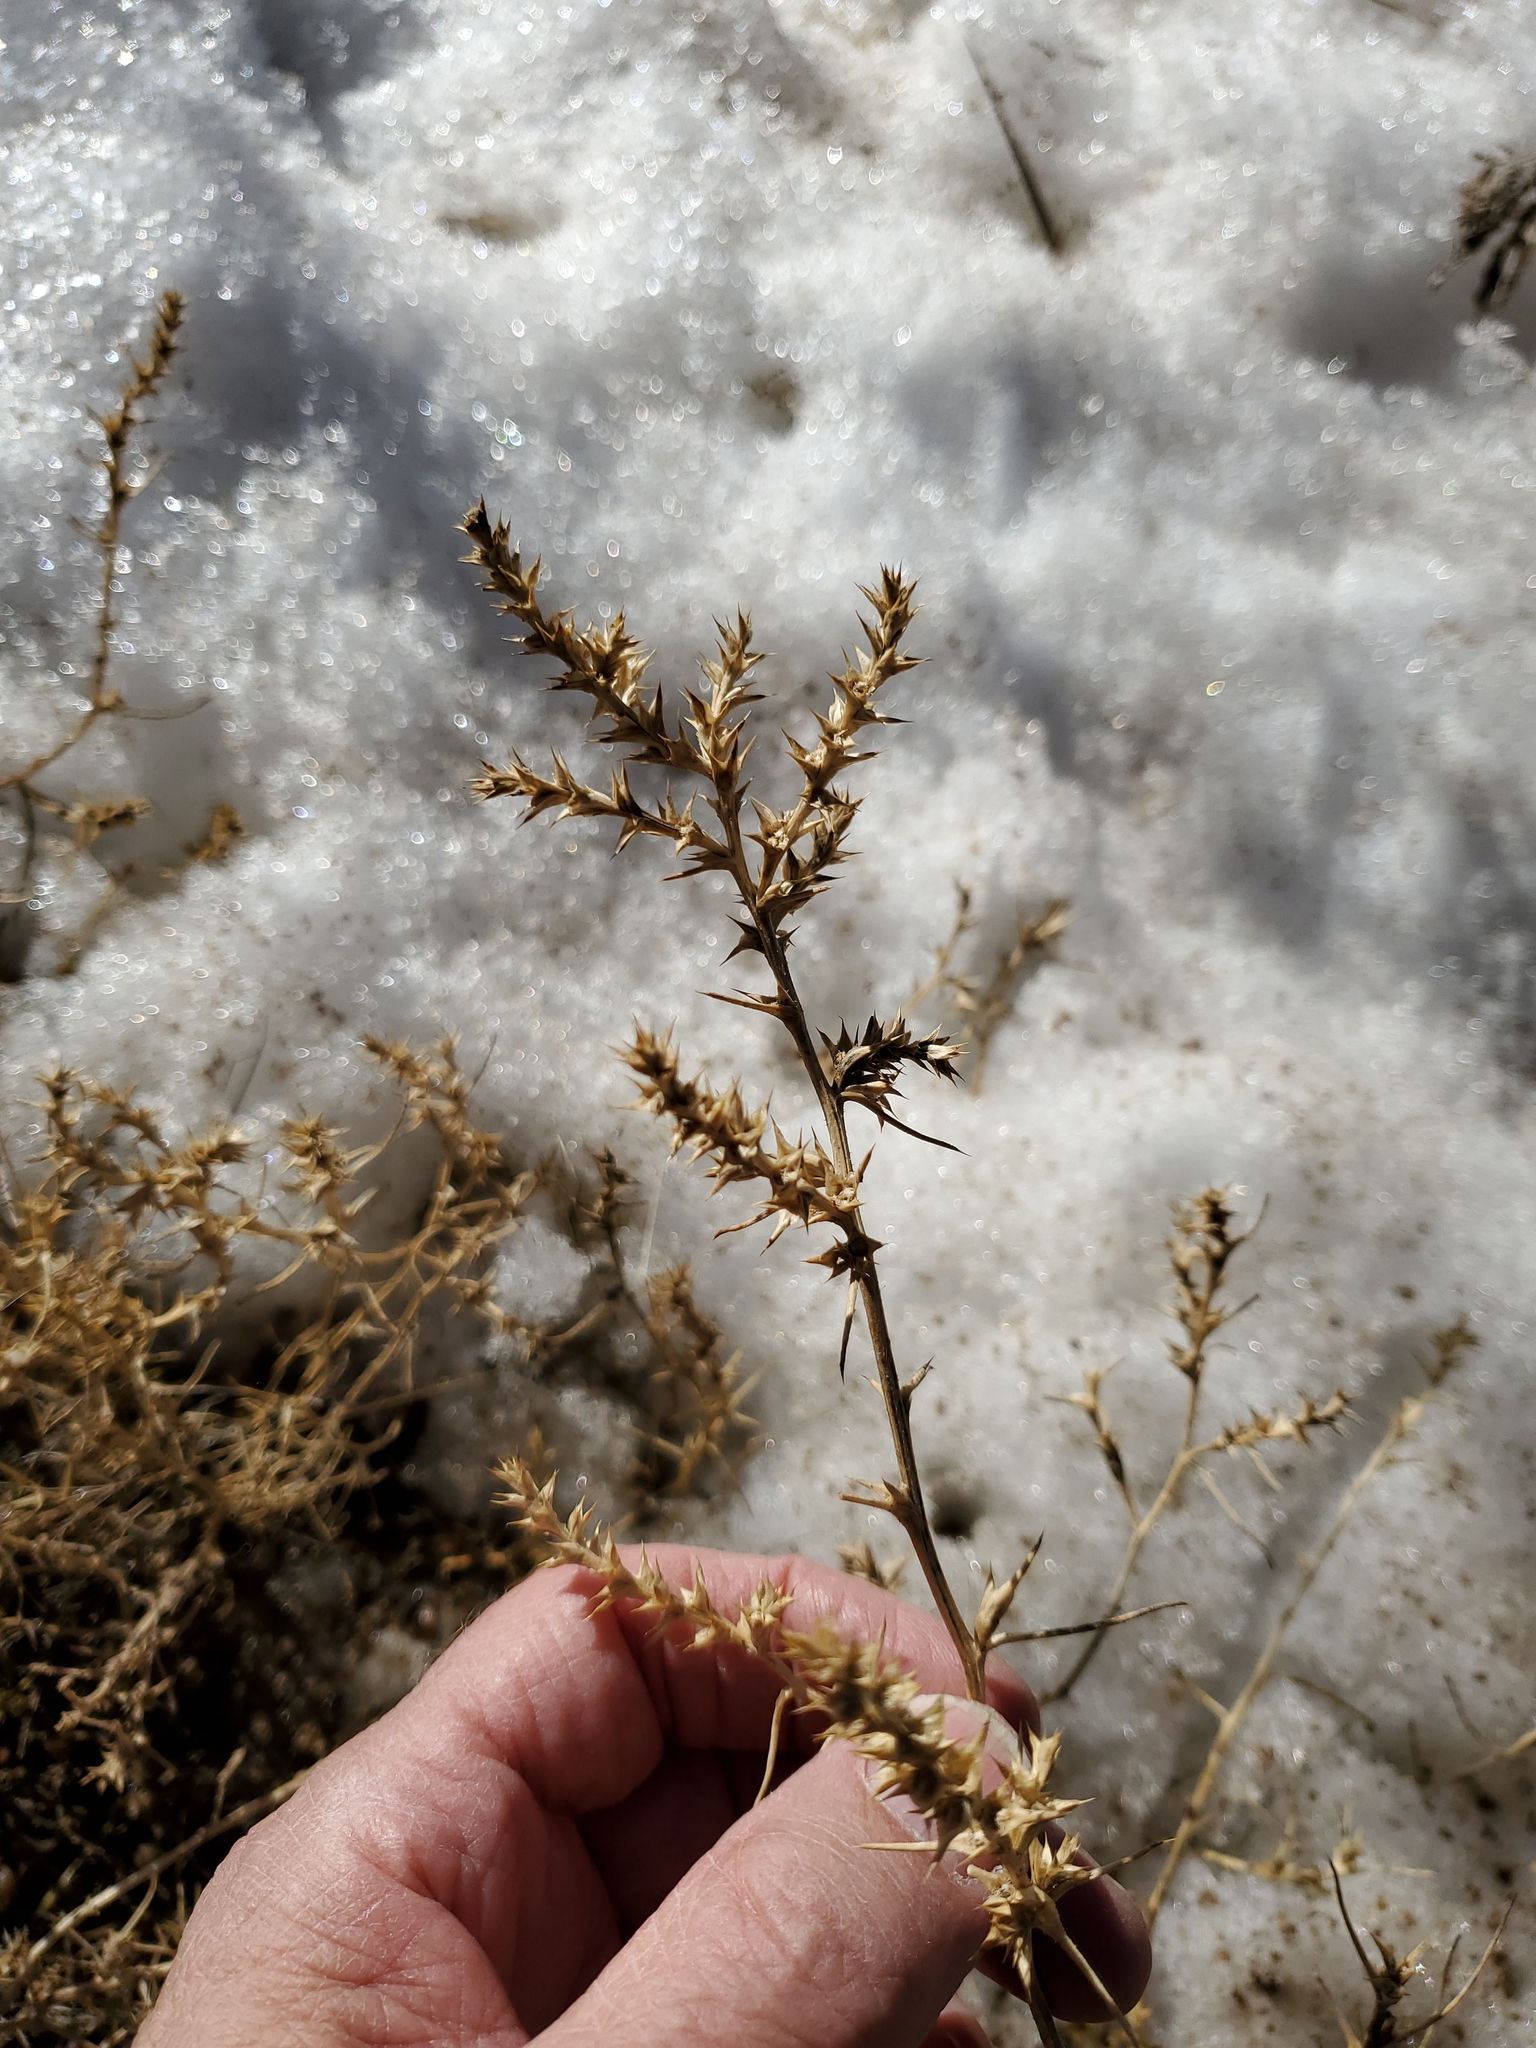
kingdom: Plantae
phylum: Tracheophyta
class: Magnoliopsida
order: Caryophyllales
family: Amaranthaceae
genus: Salsola
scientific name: Salsola tragus
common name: Prickly russian thistle
